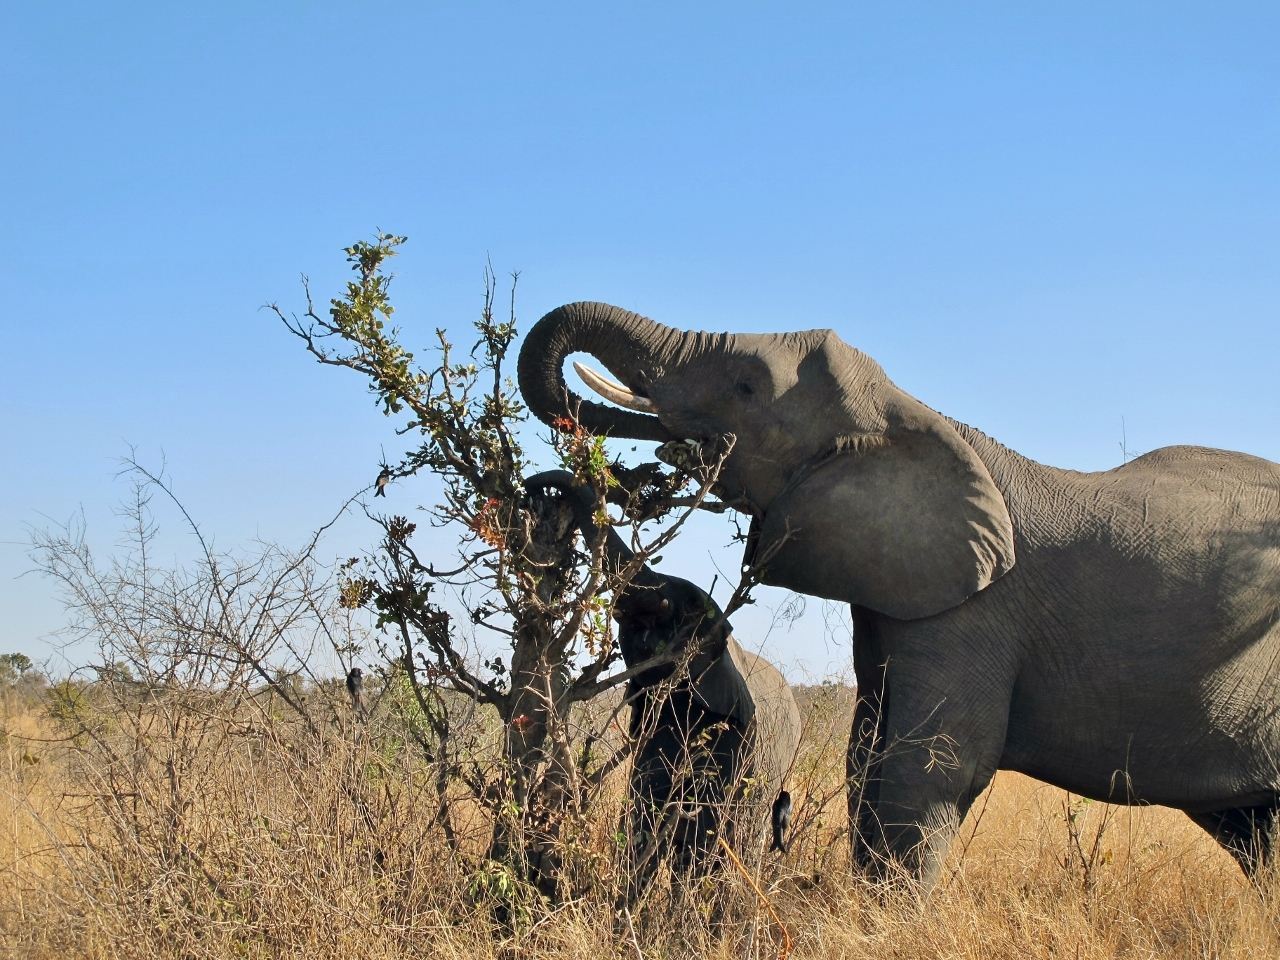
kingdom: Animalia
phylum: Chordata
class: Mammalia
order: Proboscidea
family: Elephantidae
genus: Loxodonta
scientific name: Loxodonta africana
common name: African elephant
